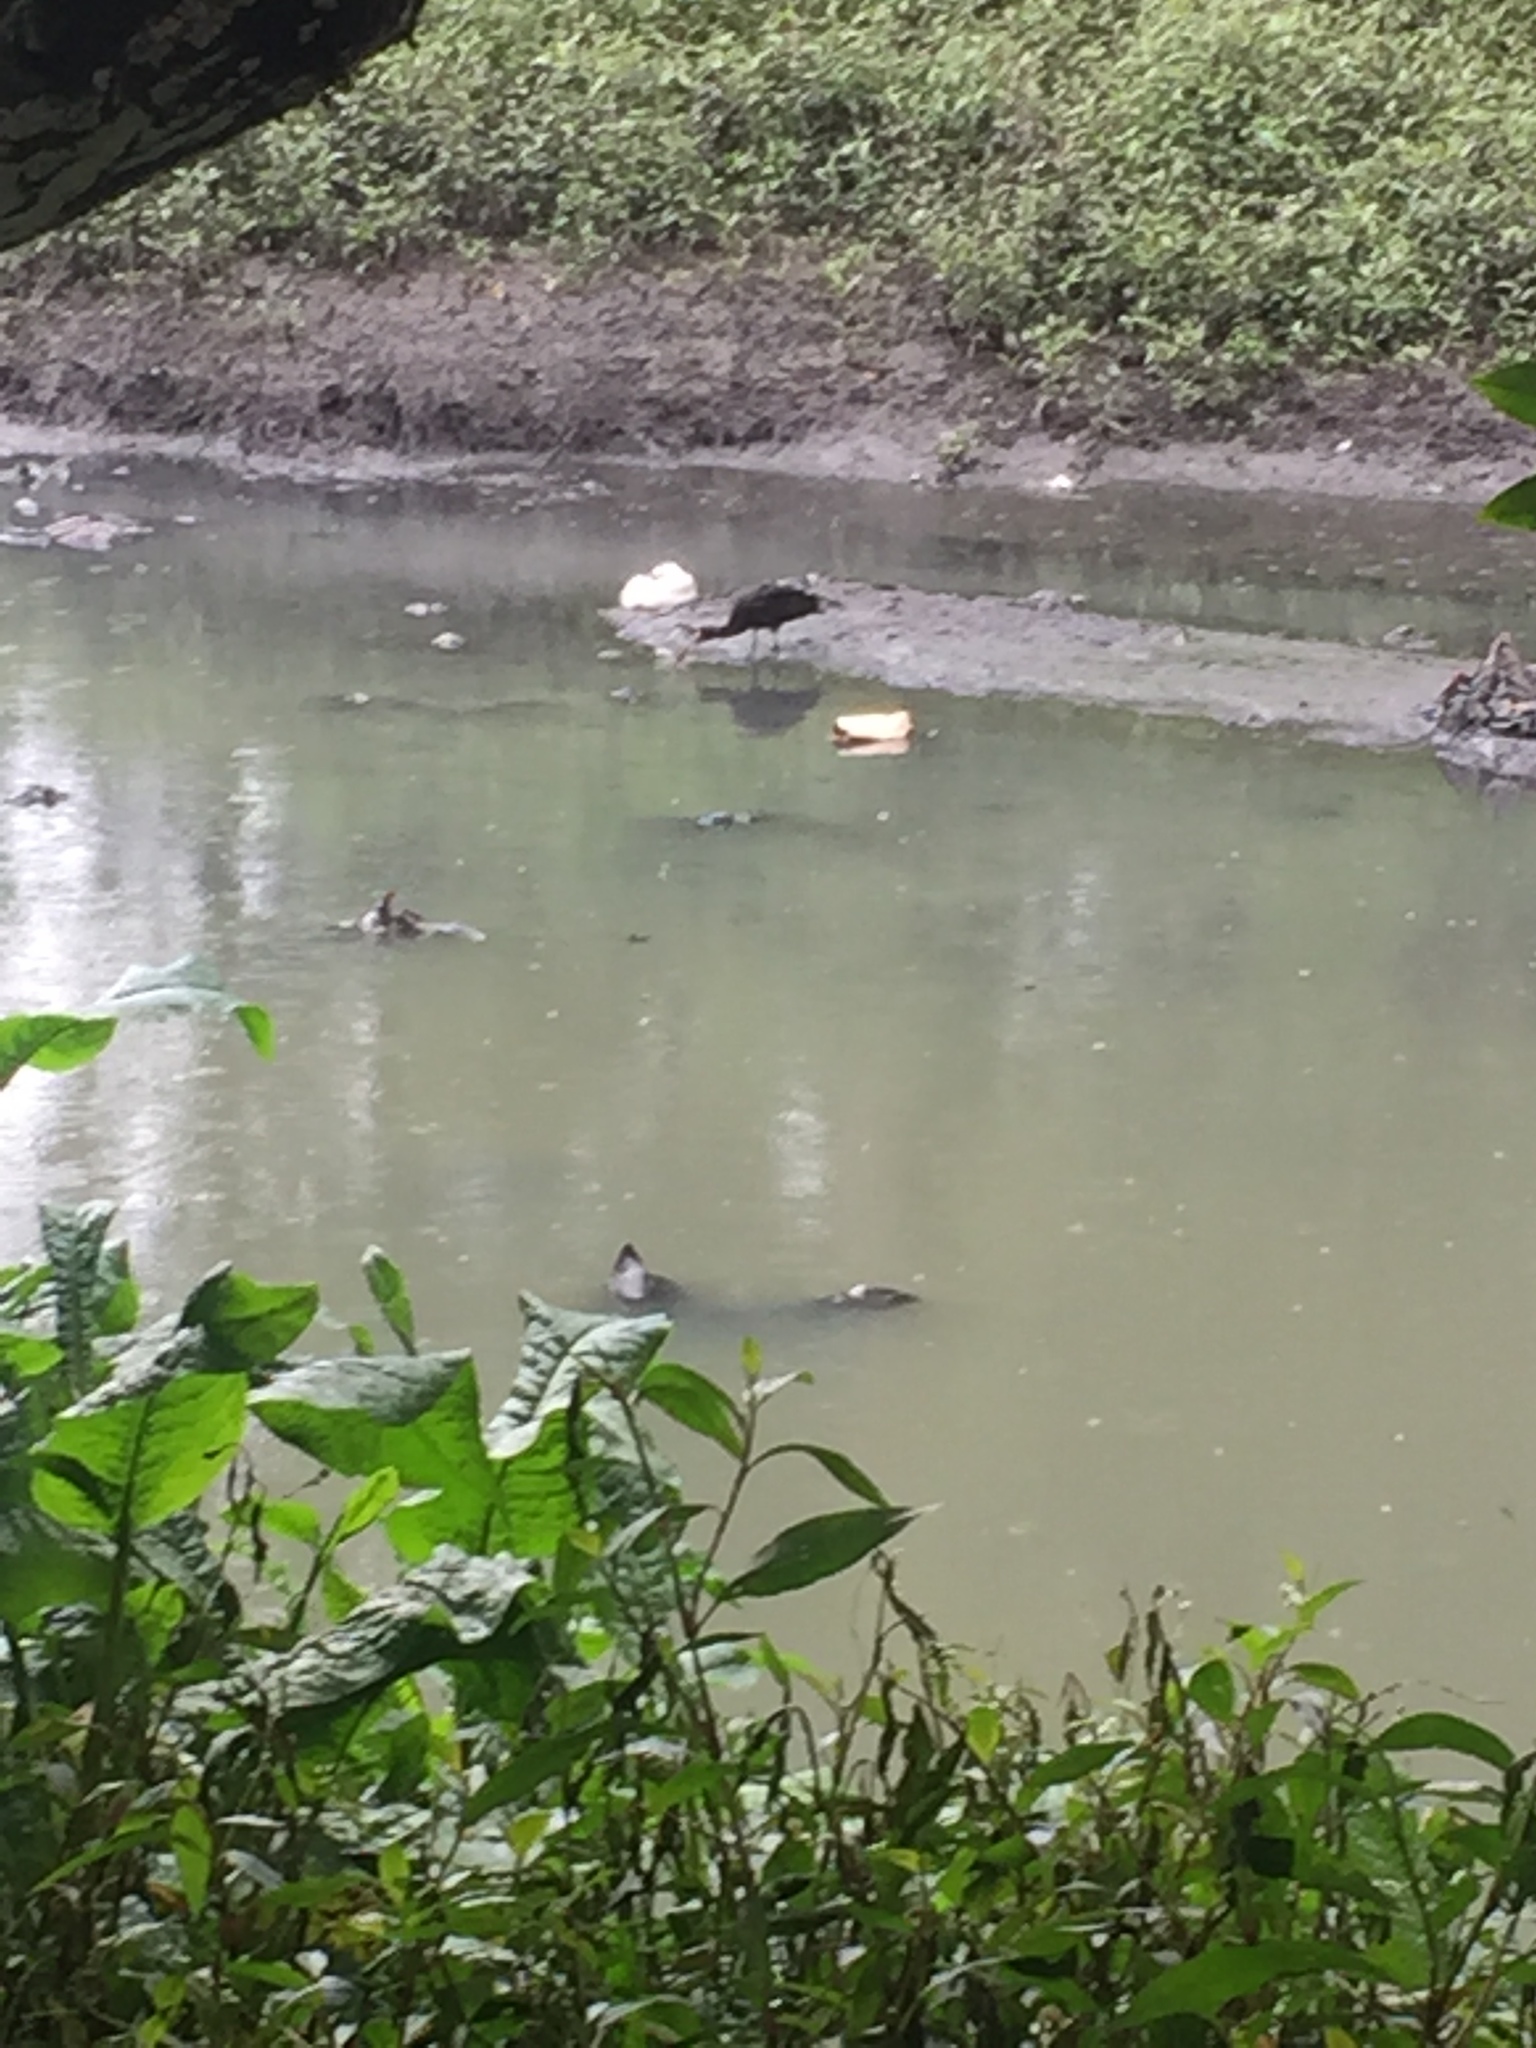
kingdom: Animalia
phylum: Chordata
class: Aves
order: Pelecaniformes
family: Threskiornithidae
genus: Phimosus
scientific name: Phimosus infuscatus
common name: Bare-faced ibis
